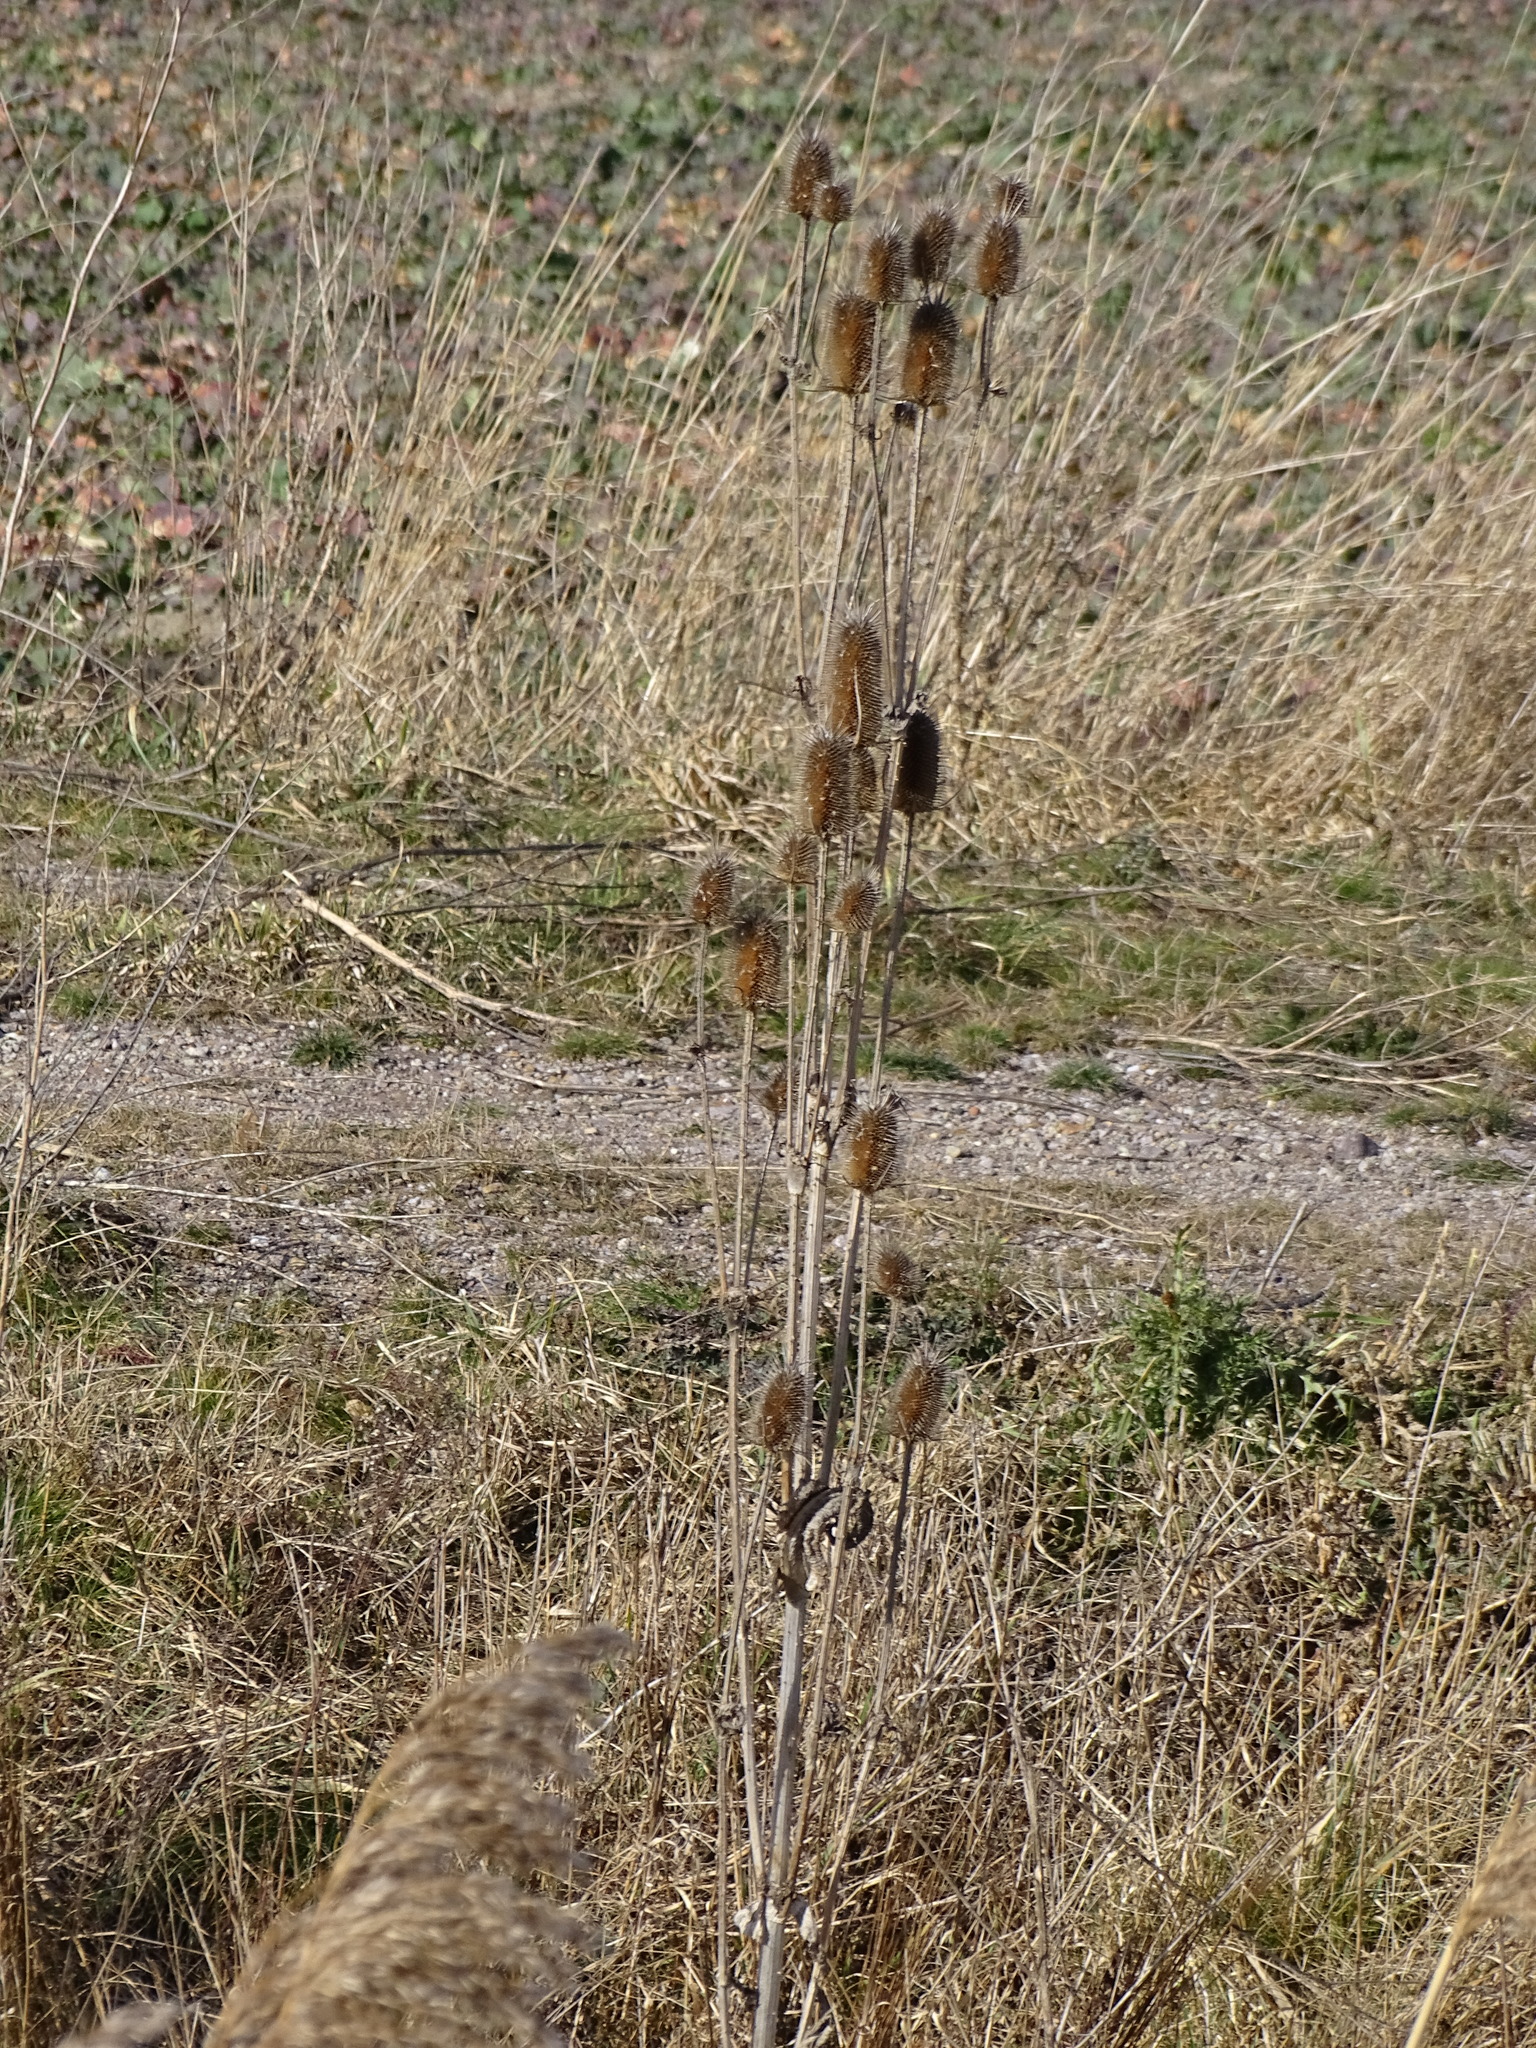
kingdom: Plantae
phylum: Tracheophyta
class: Magnoliopsida
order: Dipsacales
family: Caprifoliaceae
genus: Dipsacus
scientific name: Dipsacus laciniatus
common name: Cut-leaved teasel
